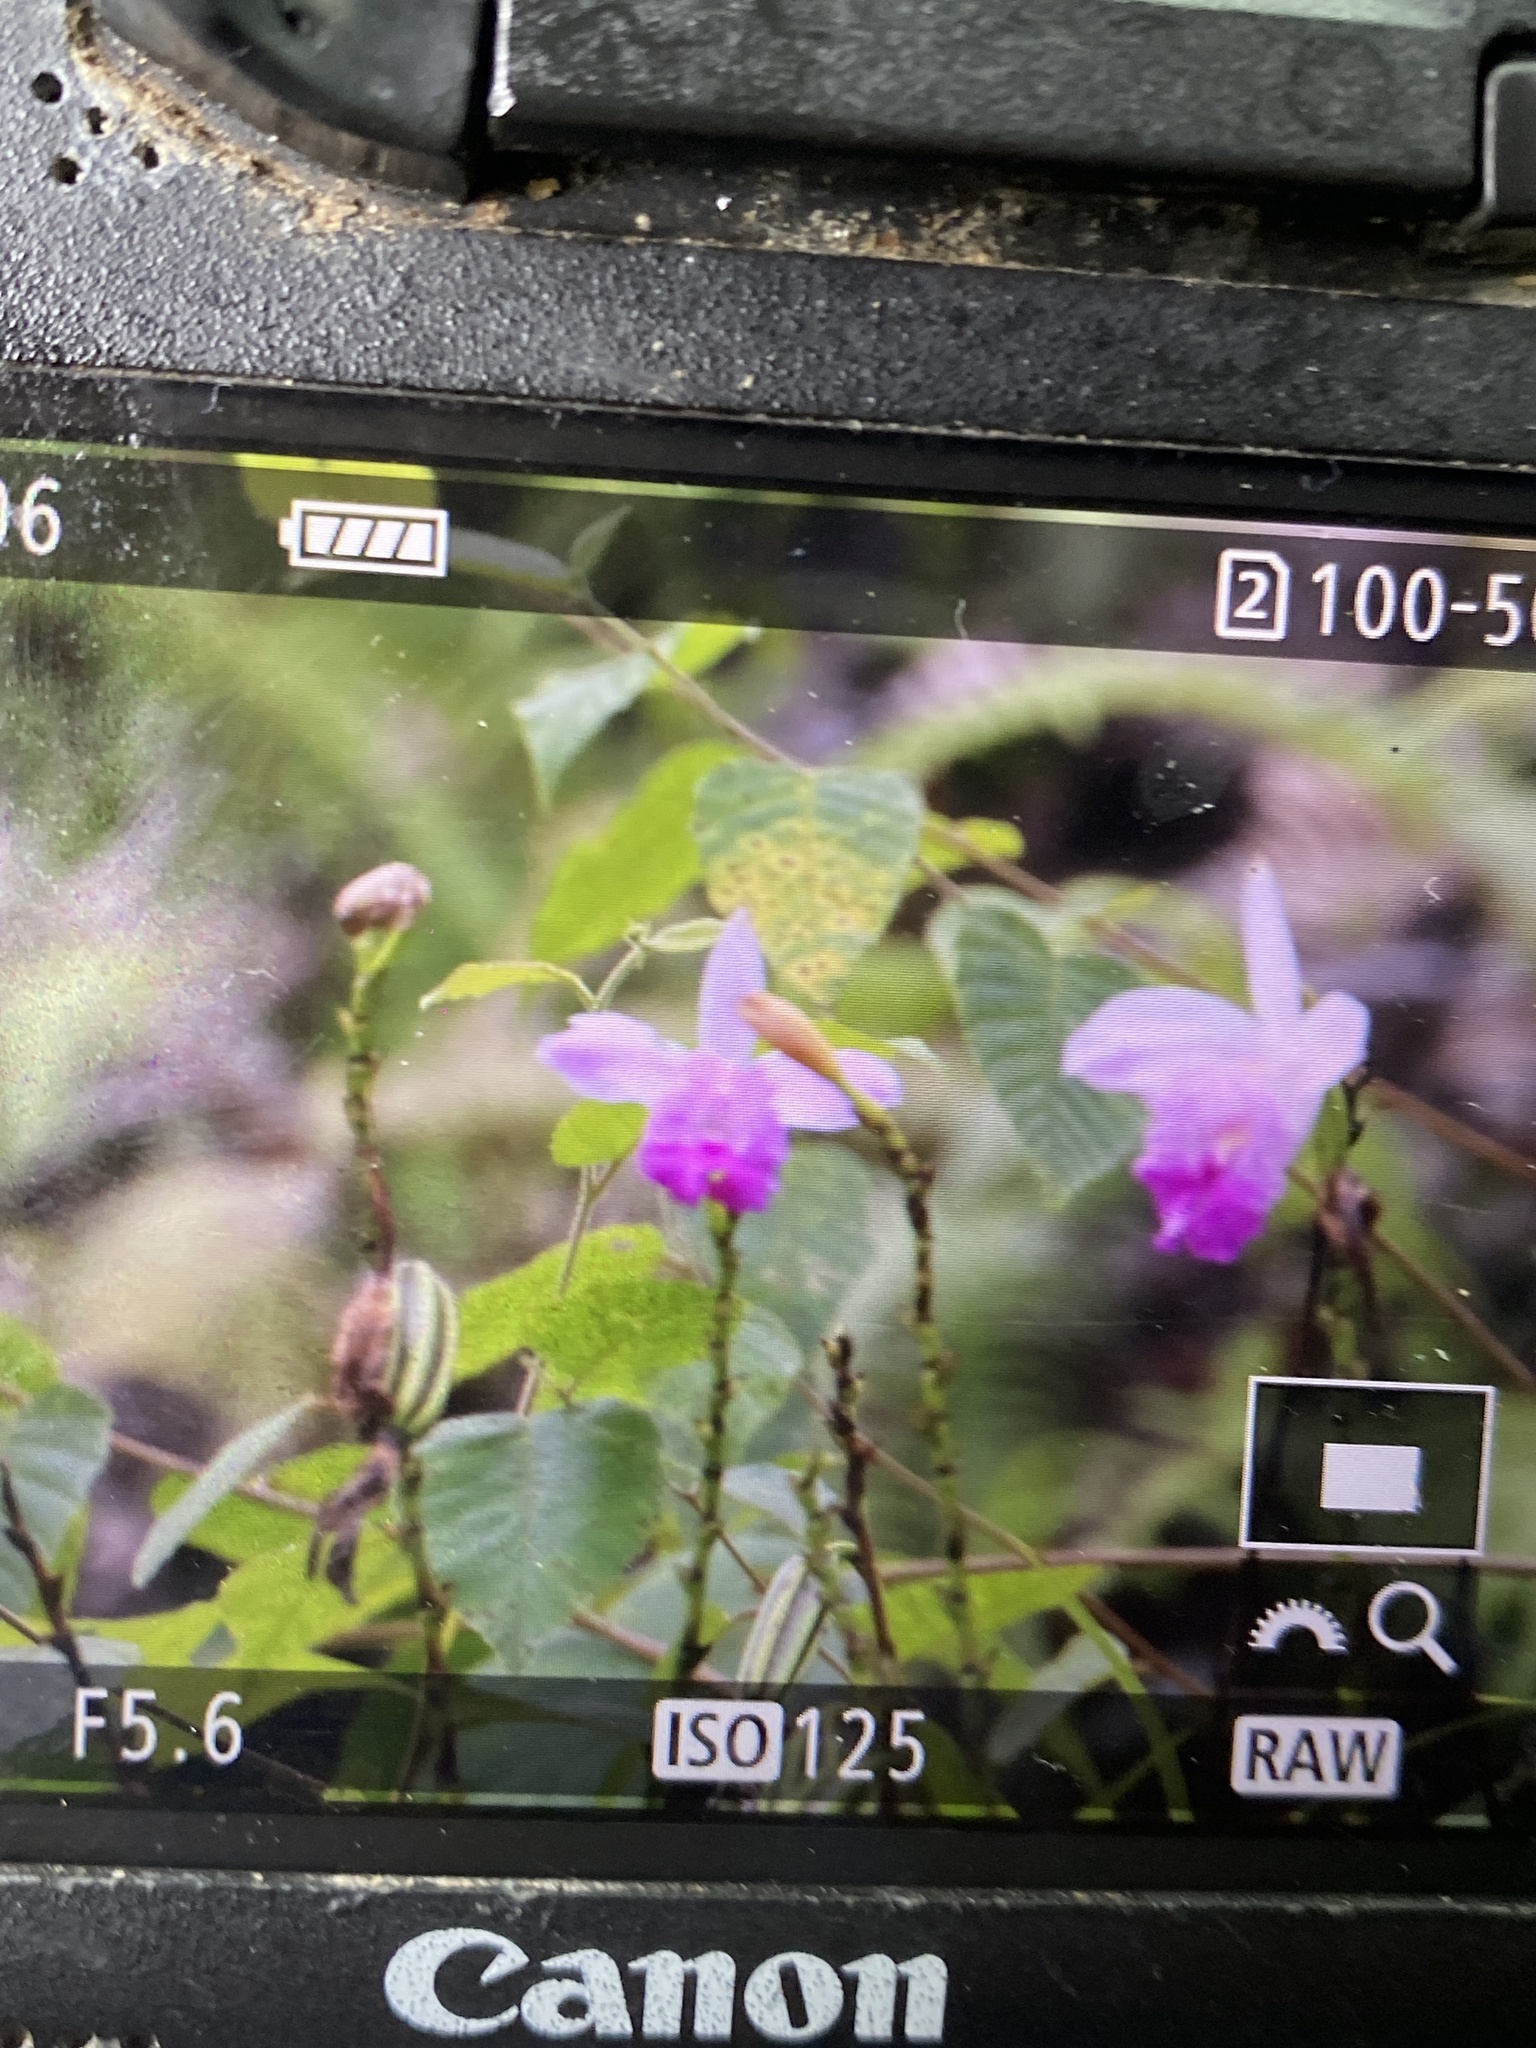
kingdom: Plantae
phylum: Tracheophyta
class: Liliopsida
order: Asparagales
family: Orchidaceae
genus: Arundina
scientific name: Arundina graminifolia
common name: Bamboo orchid
